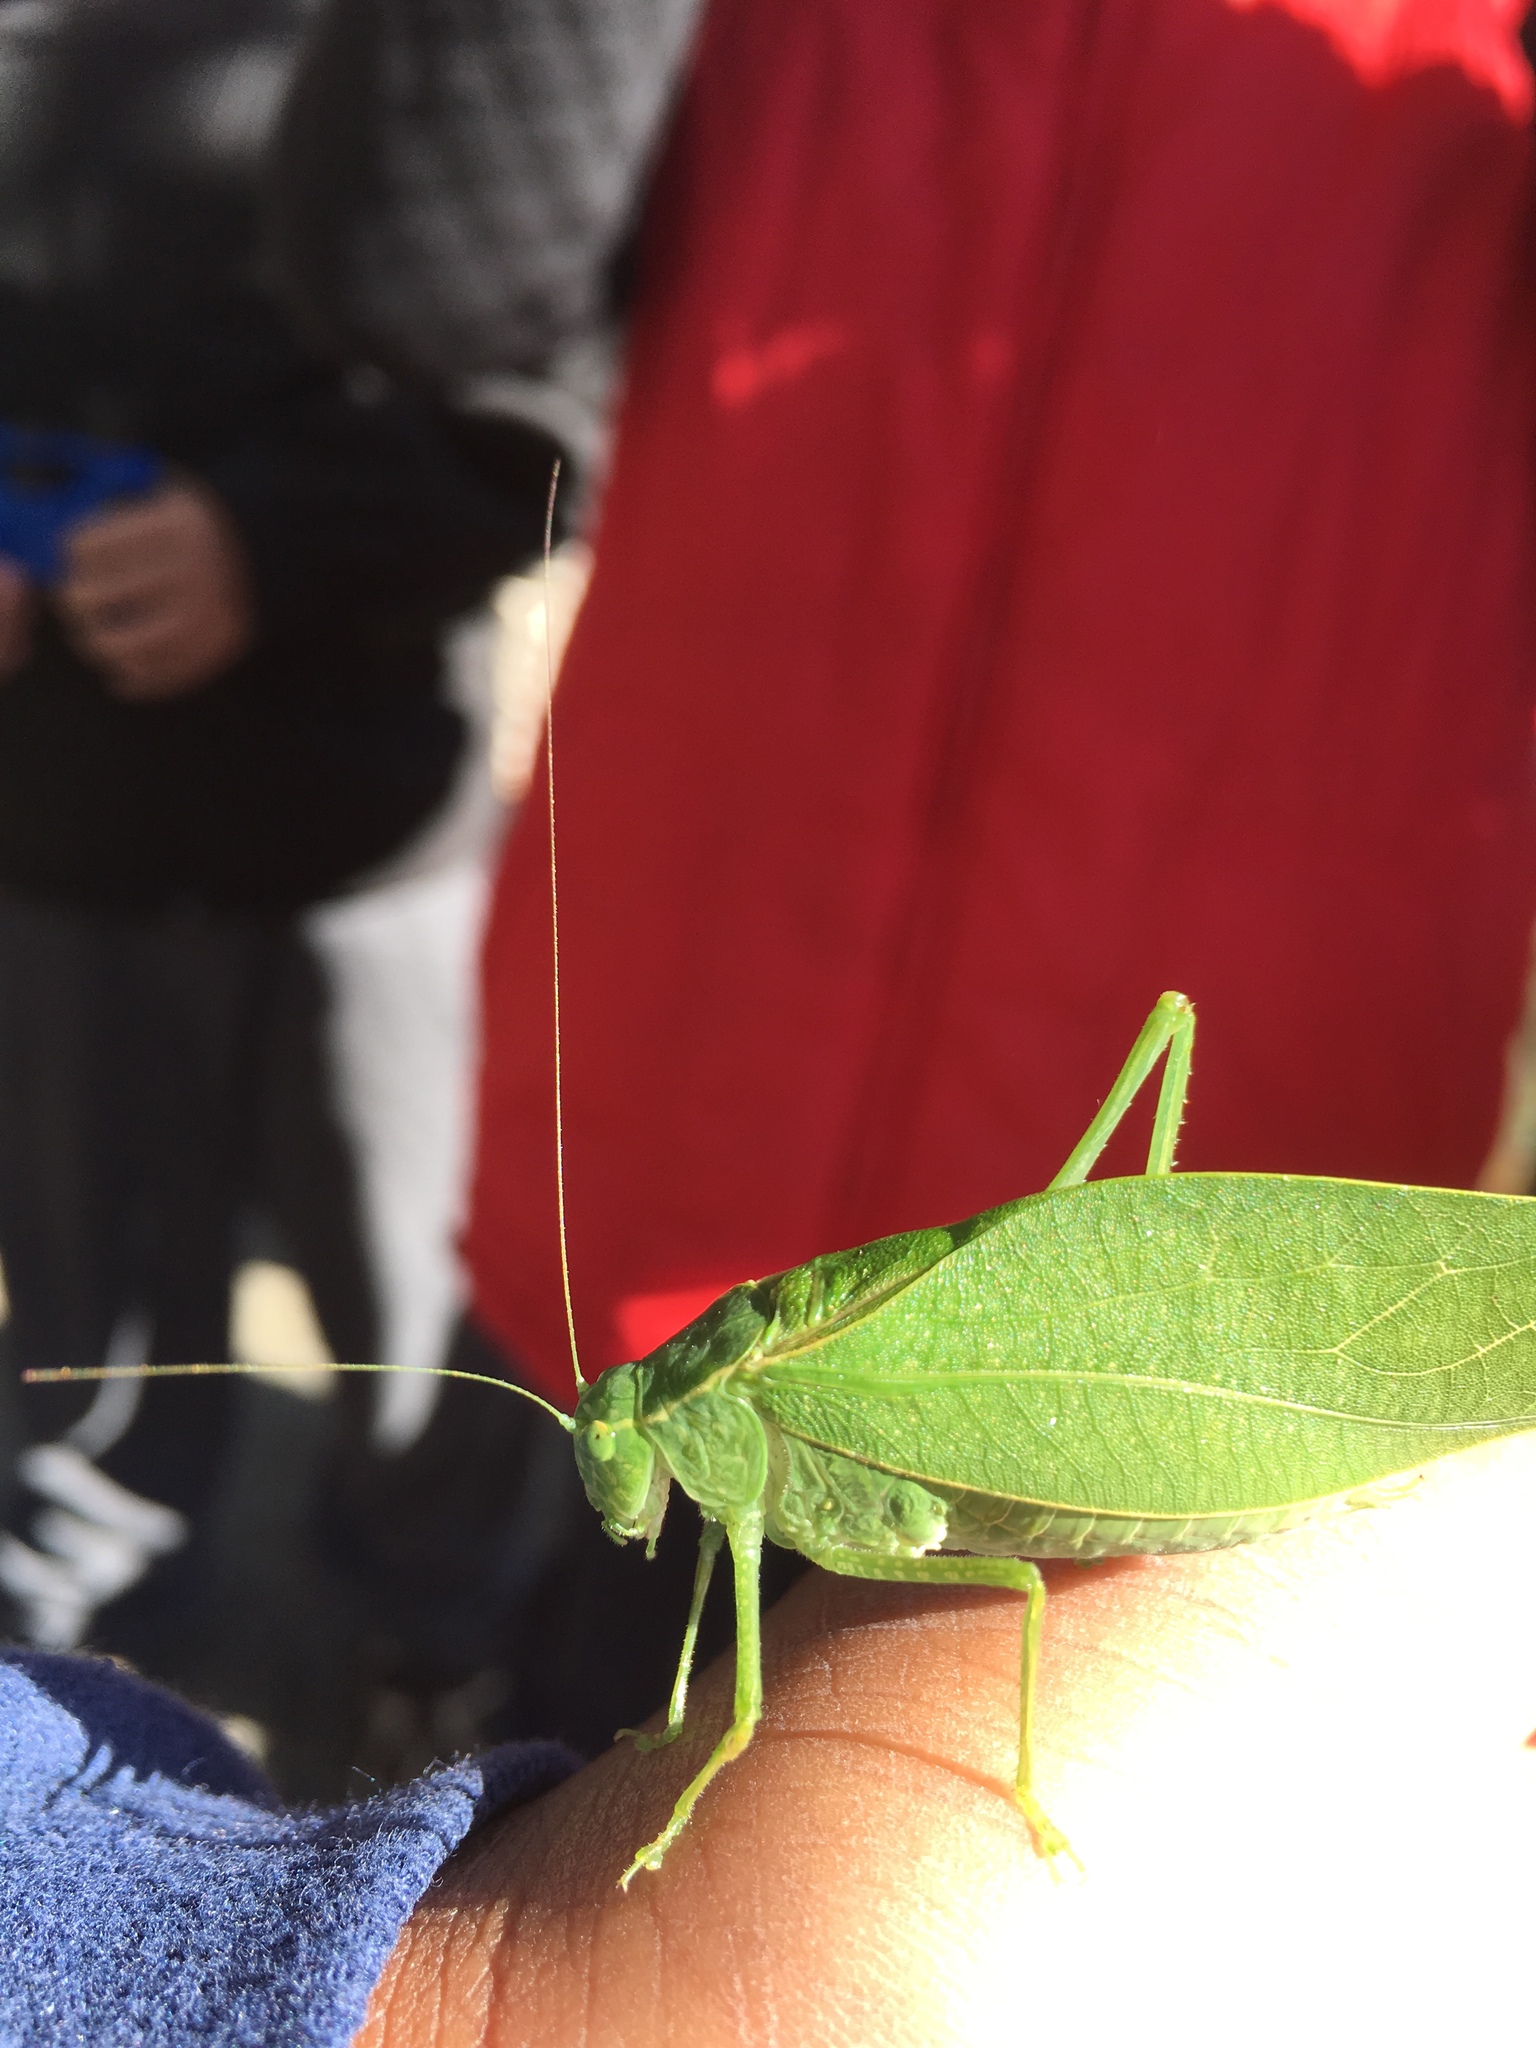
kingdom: Animalia
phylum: Arthropoda
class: Insecta
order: Orthoptera
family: Tettigoniidae
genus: Microcentrum
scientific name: Microcentrum rhombifolium
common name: Broad-winged katydid
